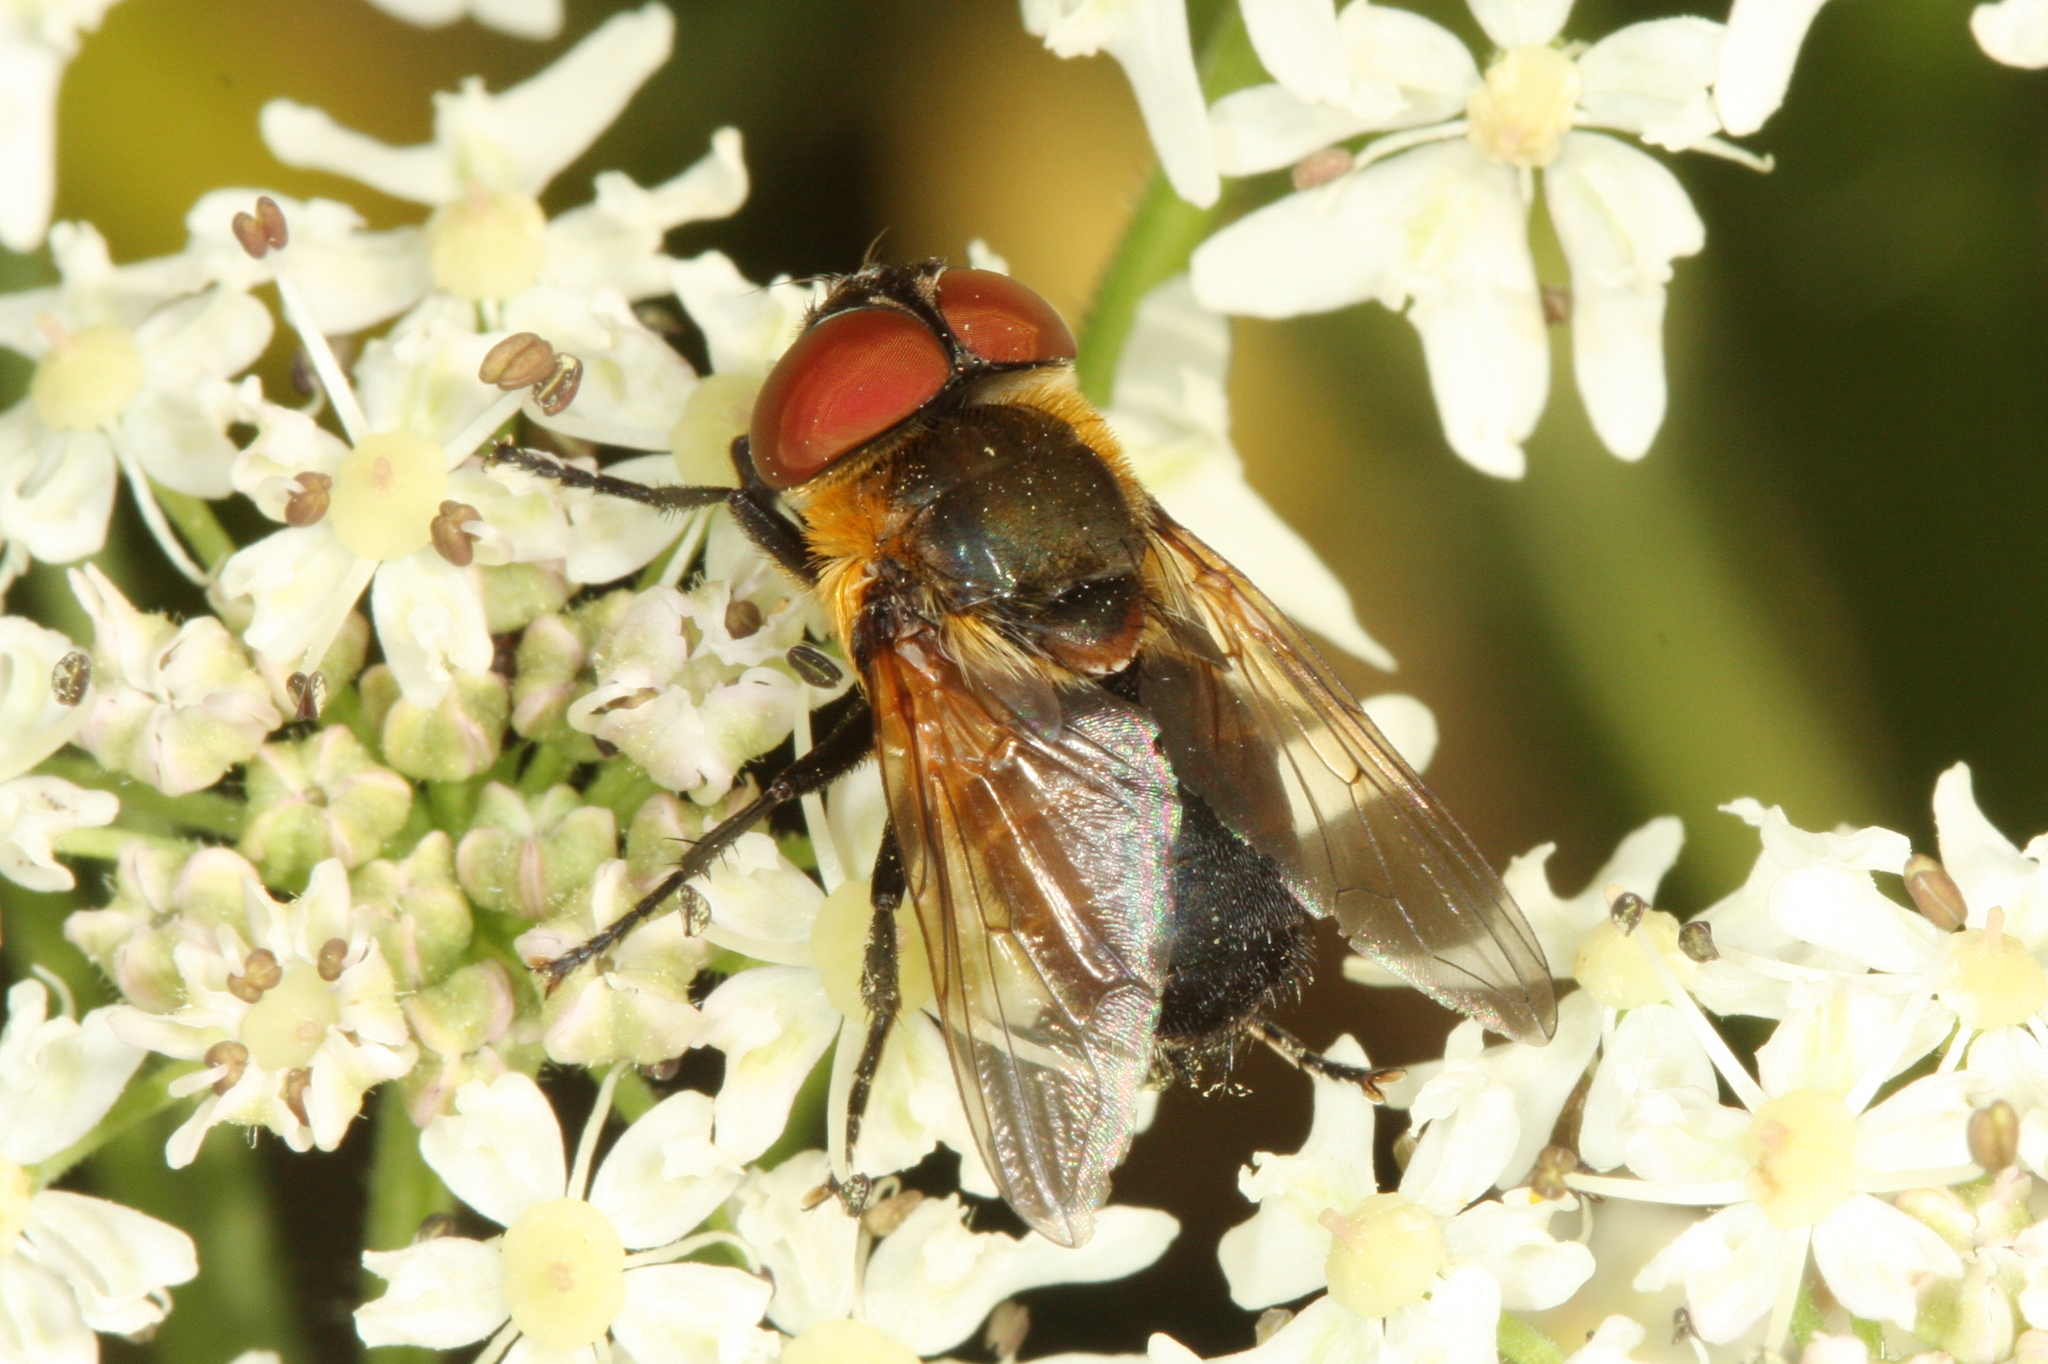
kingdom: Animalia
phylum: Arthropoda
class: Insecta
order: Diptera
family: Tachinidae
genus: Phasia
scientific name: Phasia hemiptera
